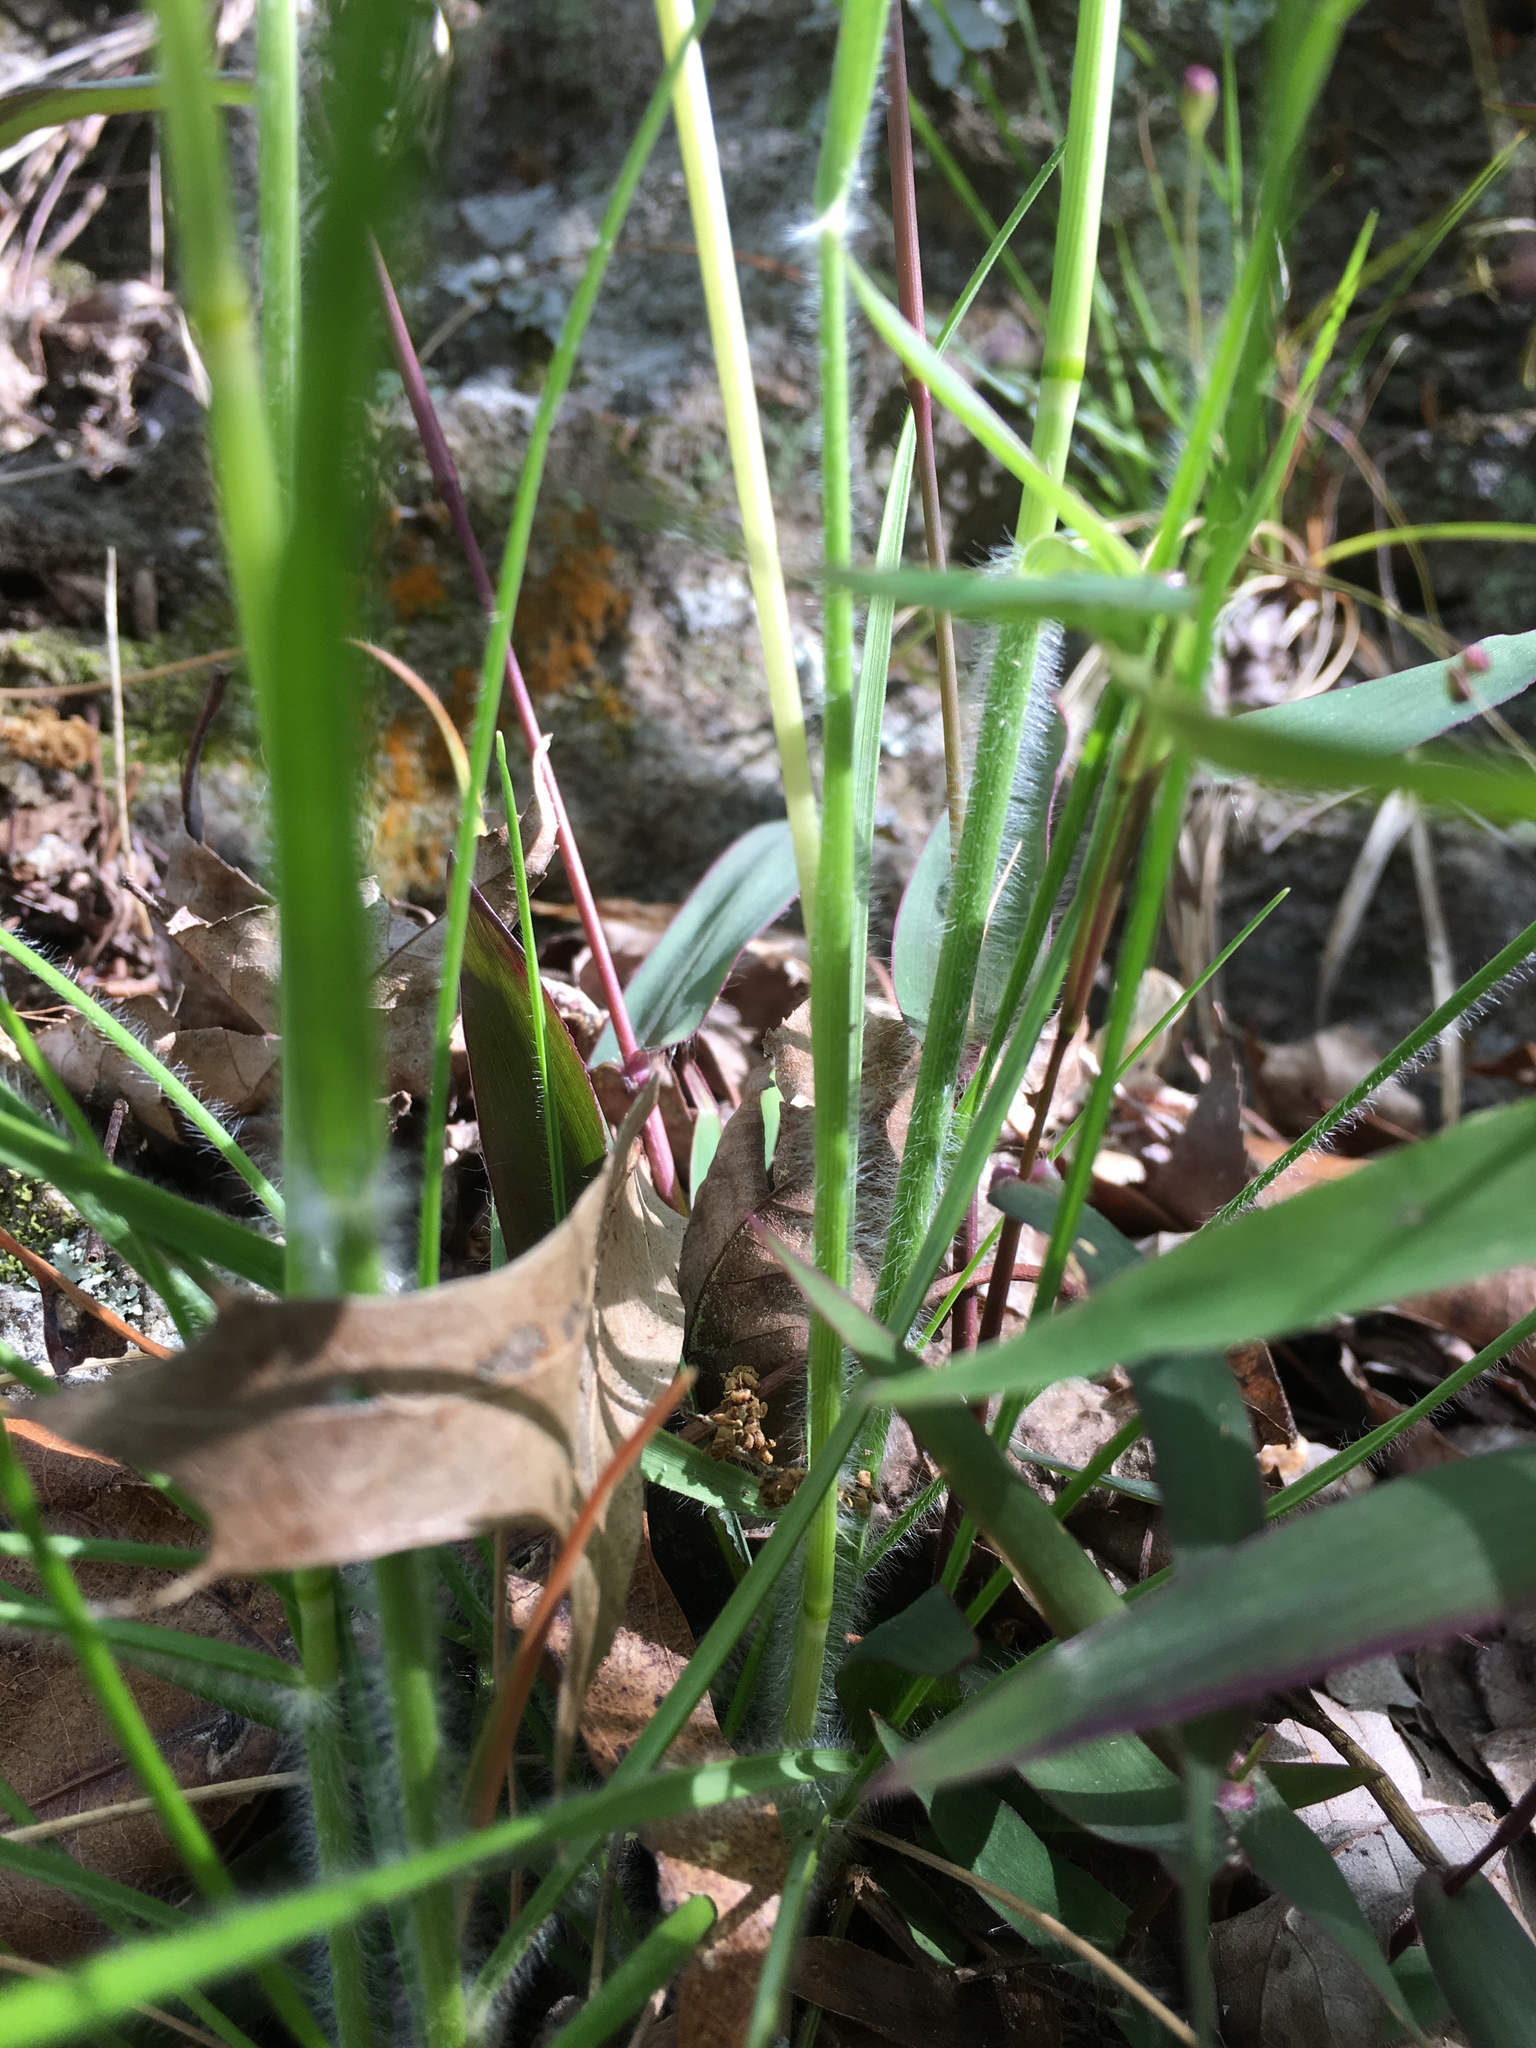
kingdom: Plantae
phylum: Tracheophyta
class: Liliopsida
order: Poales
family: Poaceae
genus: Danthonia
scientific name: Danthonia sericea
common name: Downy danthonia
